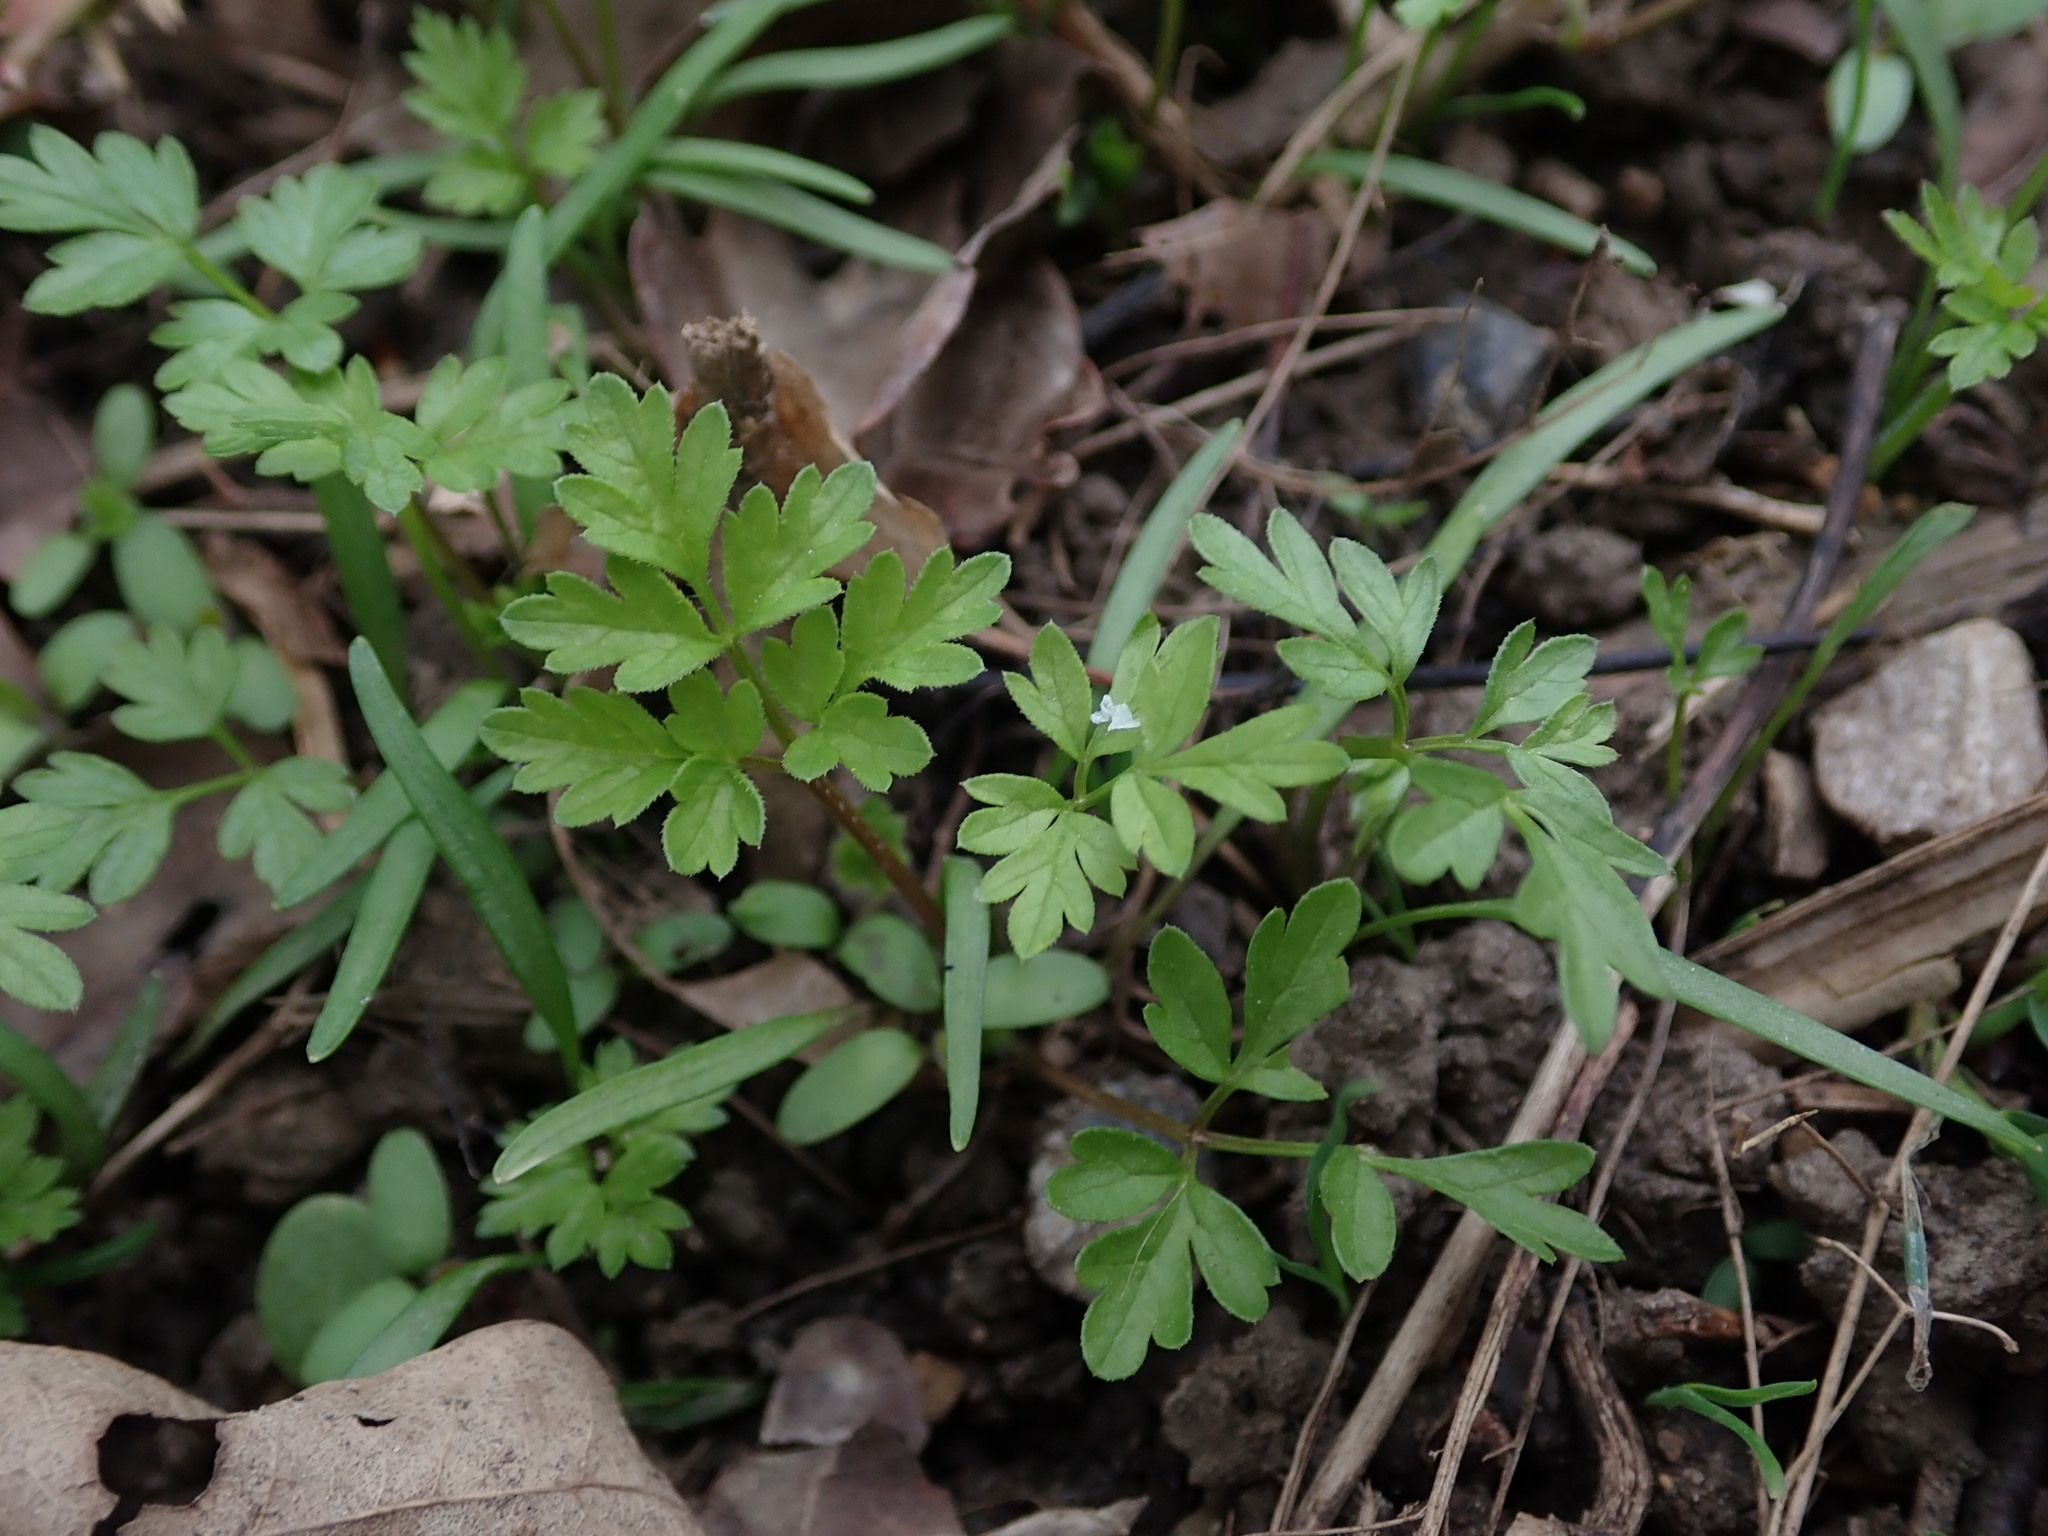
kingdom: Plantae
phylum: Tracheophyta
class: Magnoliopsida
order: Dipsacales
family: Viburnaceae
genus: Adoxa
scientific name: Adoxa moschatellina
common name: Moschatel
